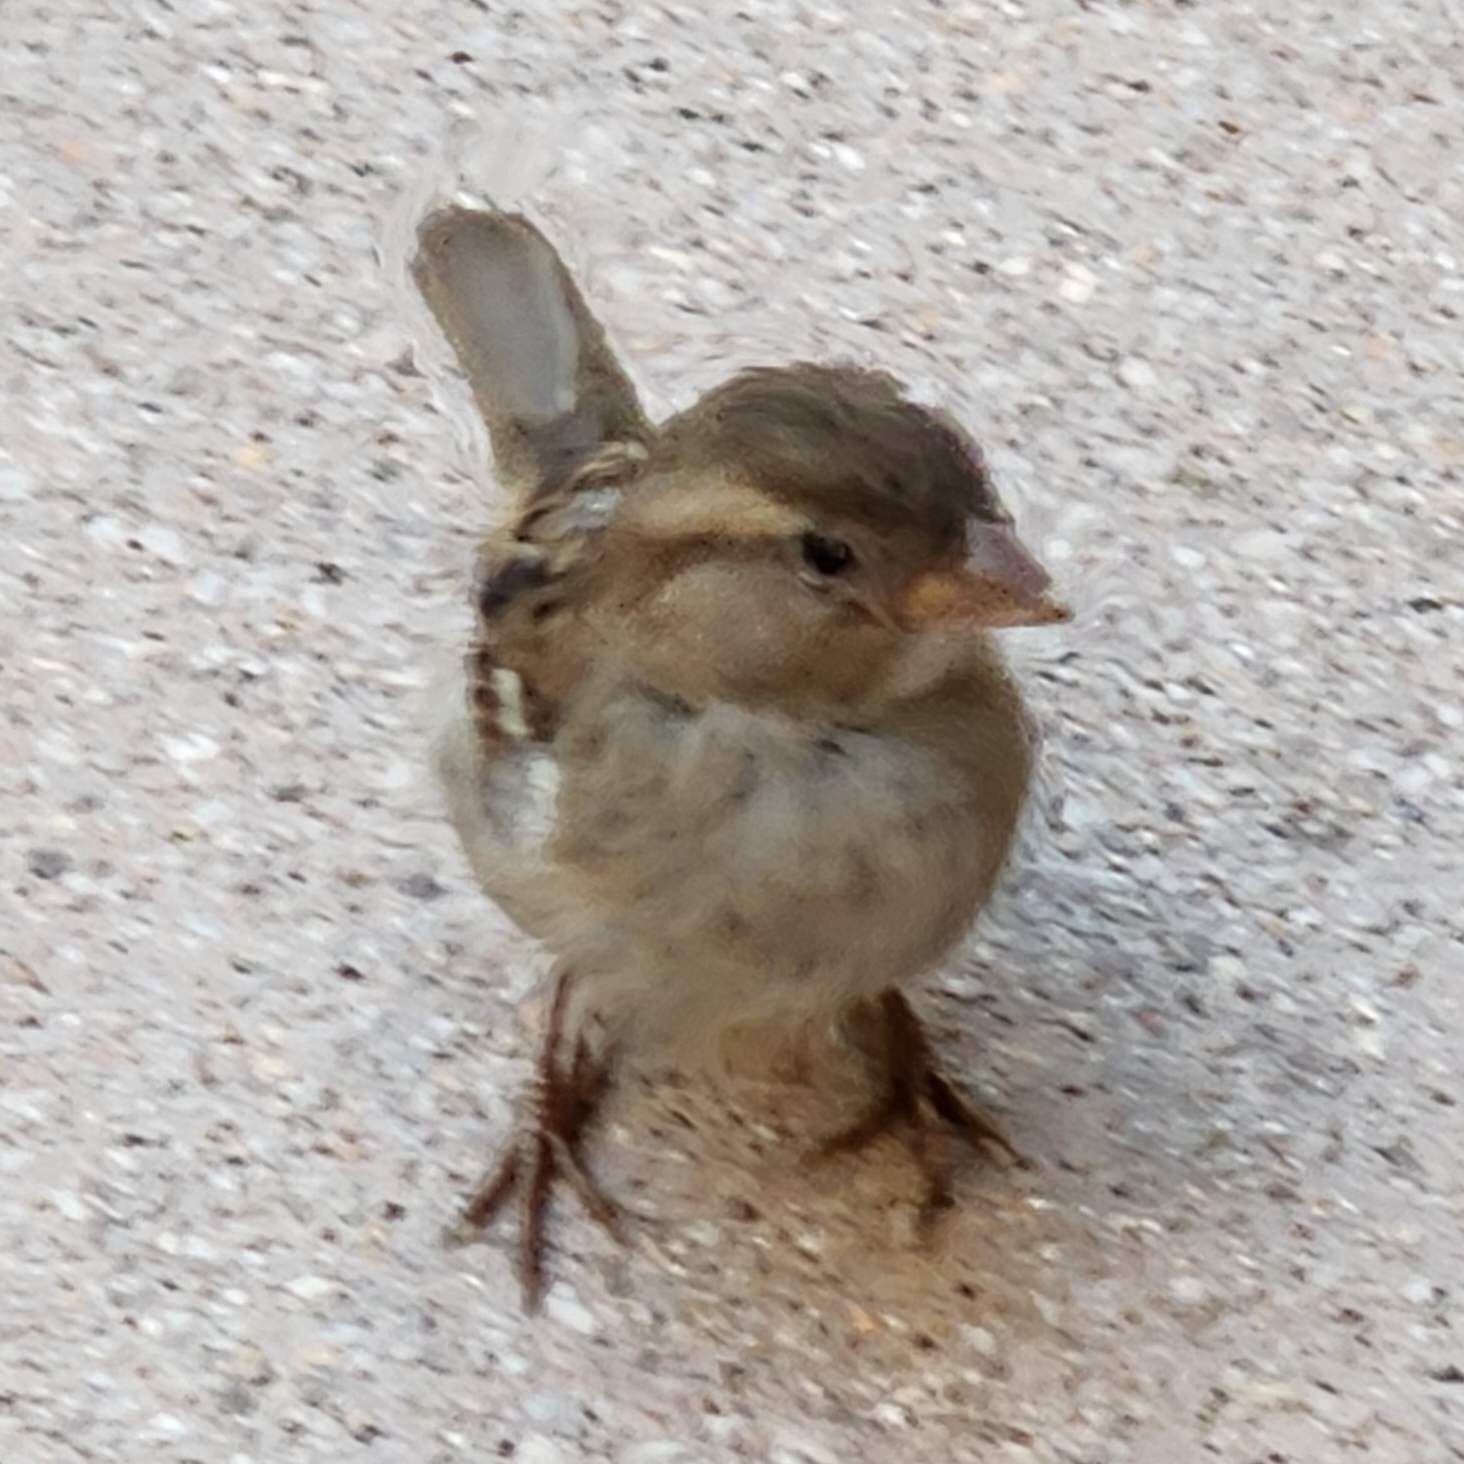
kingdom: Animalia
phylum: Chordata
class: Aves
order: Passeriformes
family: Passeridae
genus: Passer
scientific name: Passer domesticus
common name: House sparrow
